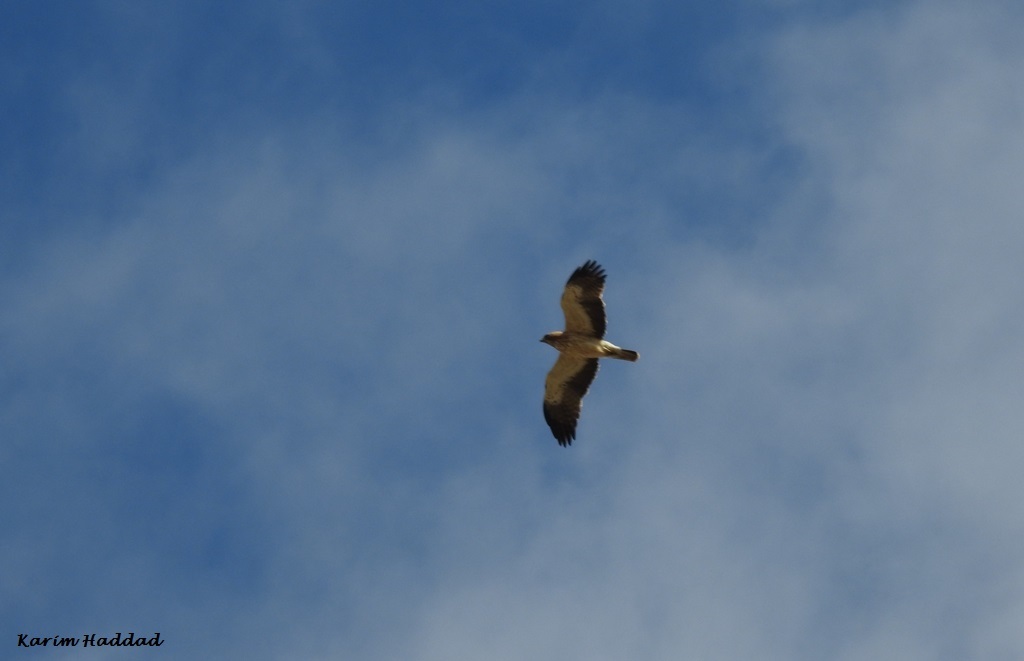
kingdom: Animalia
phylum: Chordata
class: Aves
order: Accipitriformes
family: Accipitridae
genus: Hieraaetus
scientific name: Hieraaetus pennatus
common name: Booted eagle
